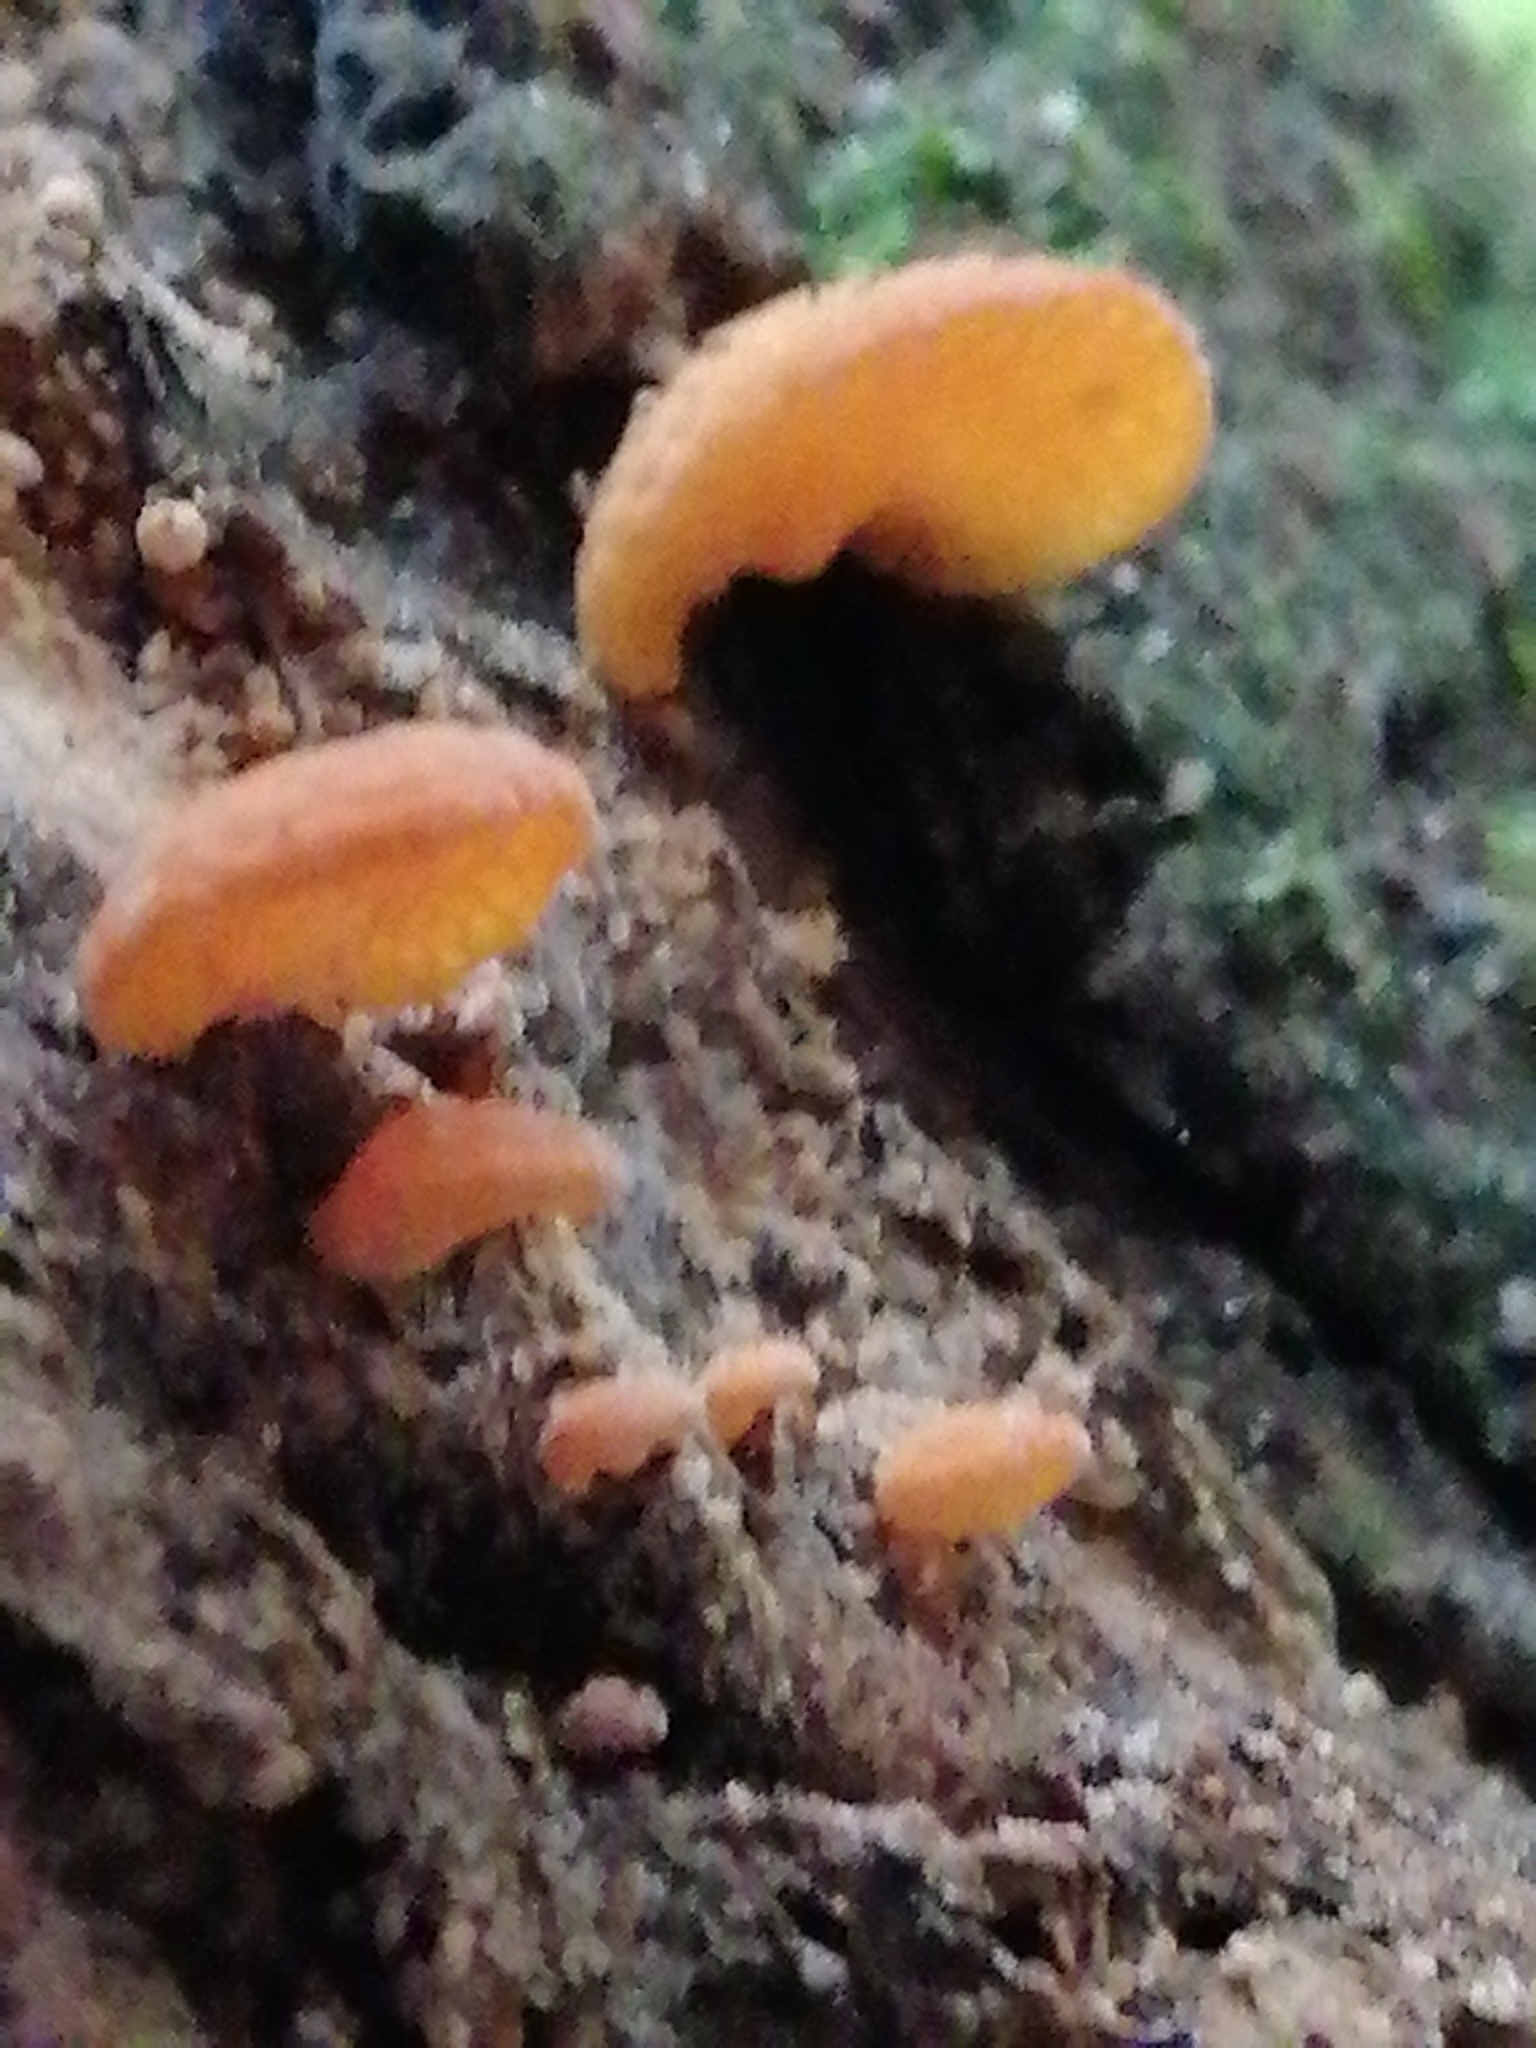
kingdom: Fungi
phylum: Basidiomycota
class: Agaricomycetes
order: Agaricales
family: Mycenaceae
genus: Favolaschia
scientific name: Favolaschia claudopus
